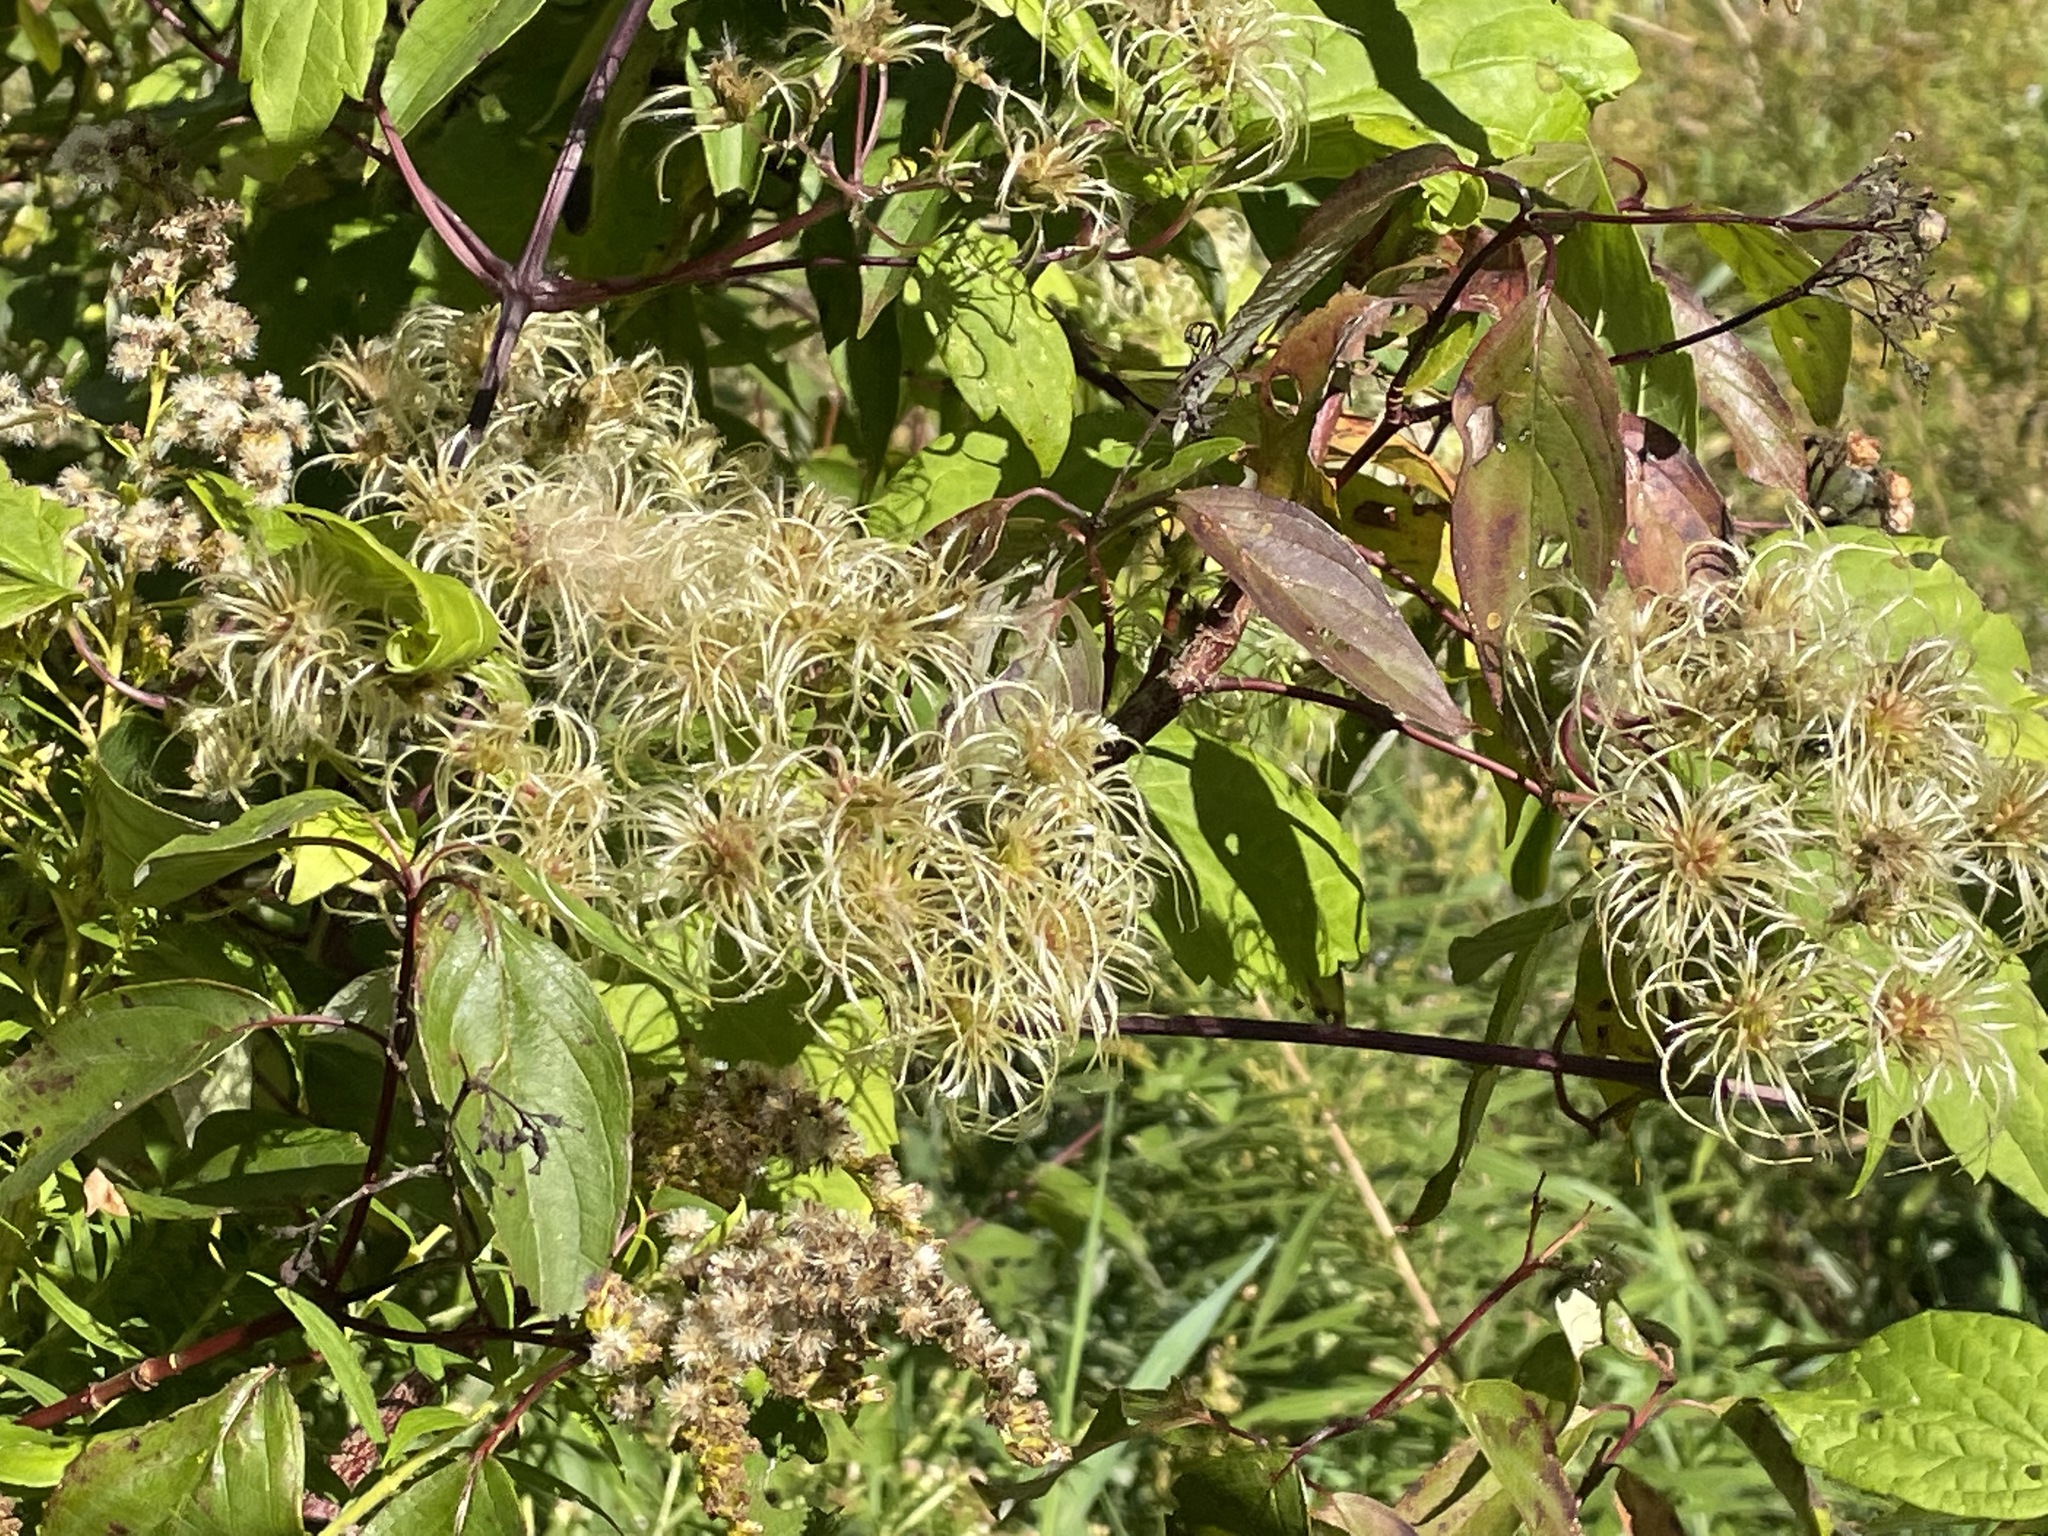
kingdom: Plantae
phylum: Tracheophyta
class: Magnoliopsida
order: Ranunculales
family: Ranunculaceae
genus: Clematis
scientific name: Clematis virginiana
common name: Virgin's-bower
